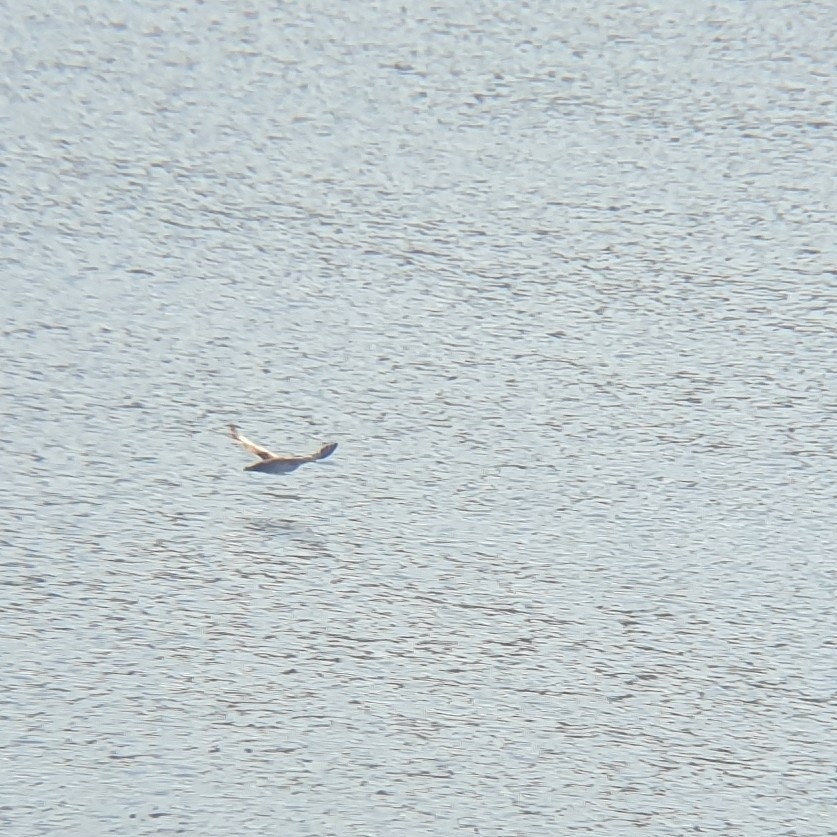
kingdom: Animalia
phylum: Chordata
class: Aves
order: Procellariiformes
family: Procellariidae
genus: Puffinus
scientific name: Puffinus yelkouan
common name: Yelkouan shearwater
